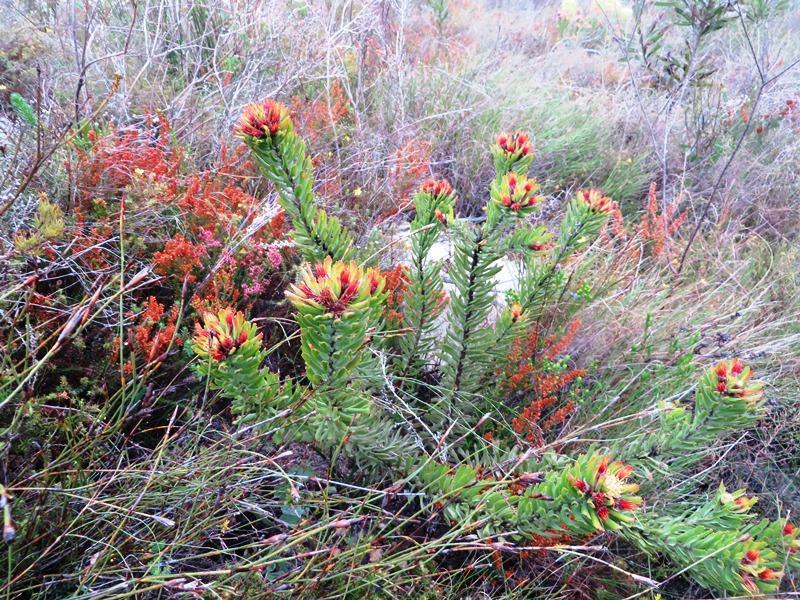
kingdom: Plantae
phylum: Tracheophyta
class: Magnoliopsida
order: Proteales
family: Proteaceae
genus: Leucospermum
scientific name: Leucospermum oleifolium
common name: Matches
